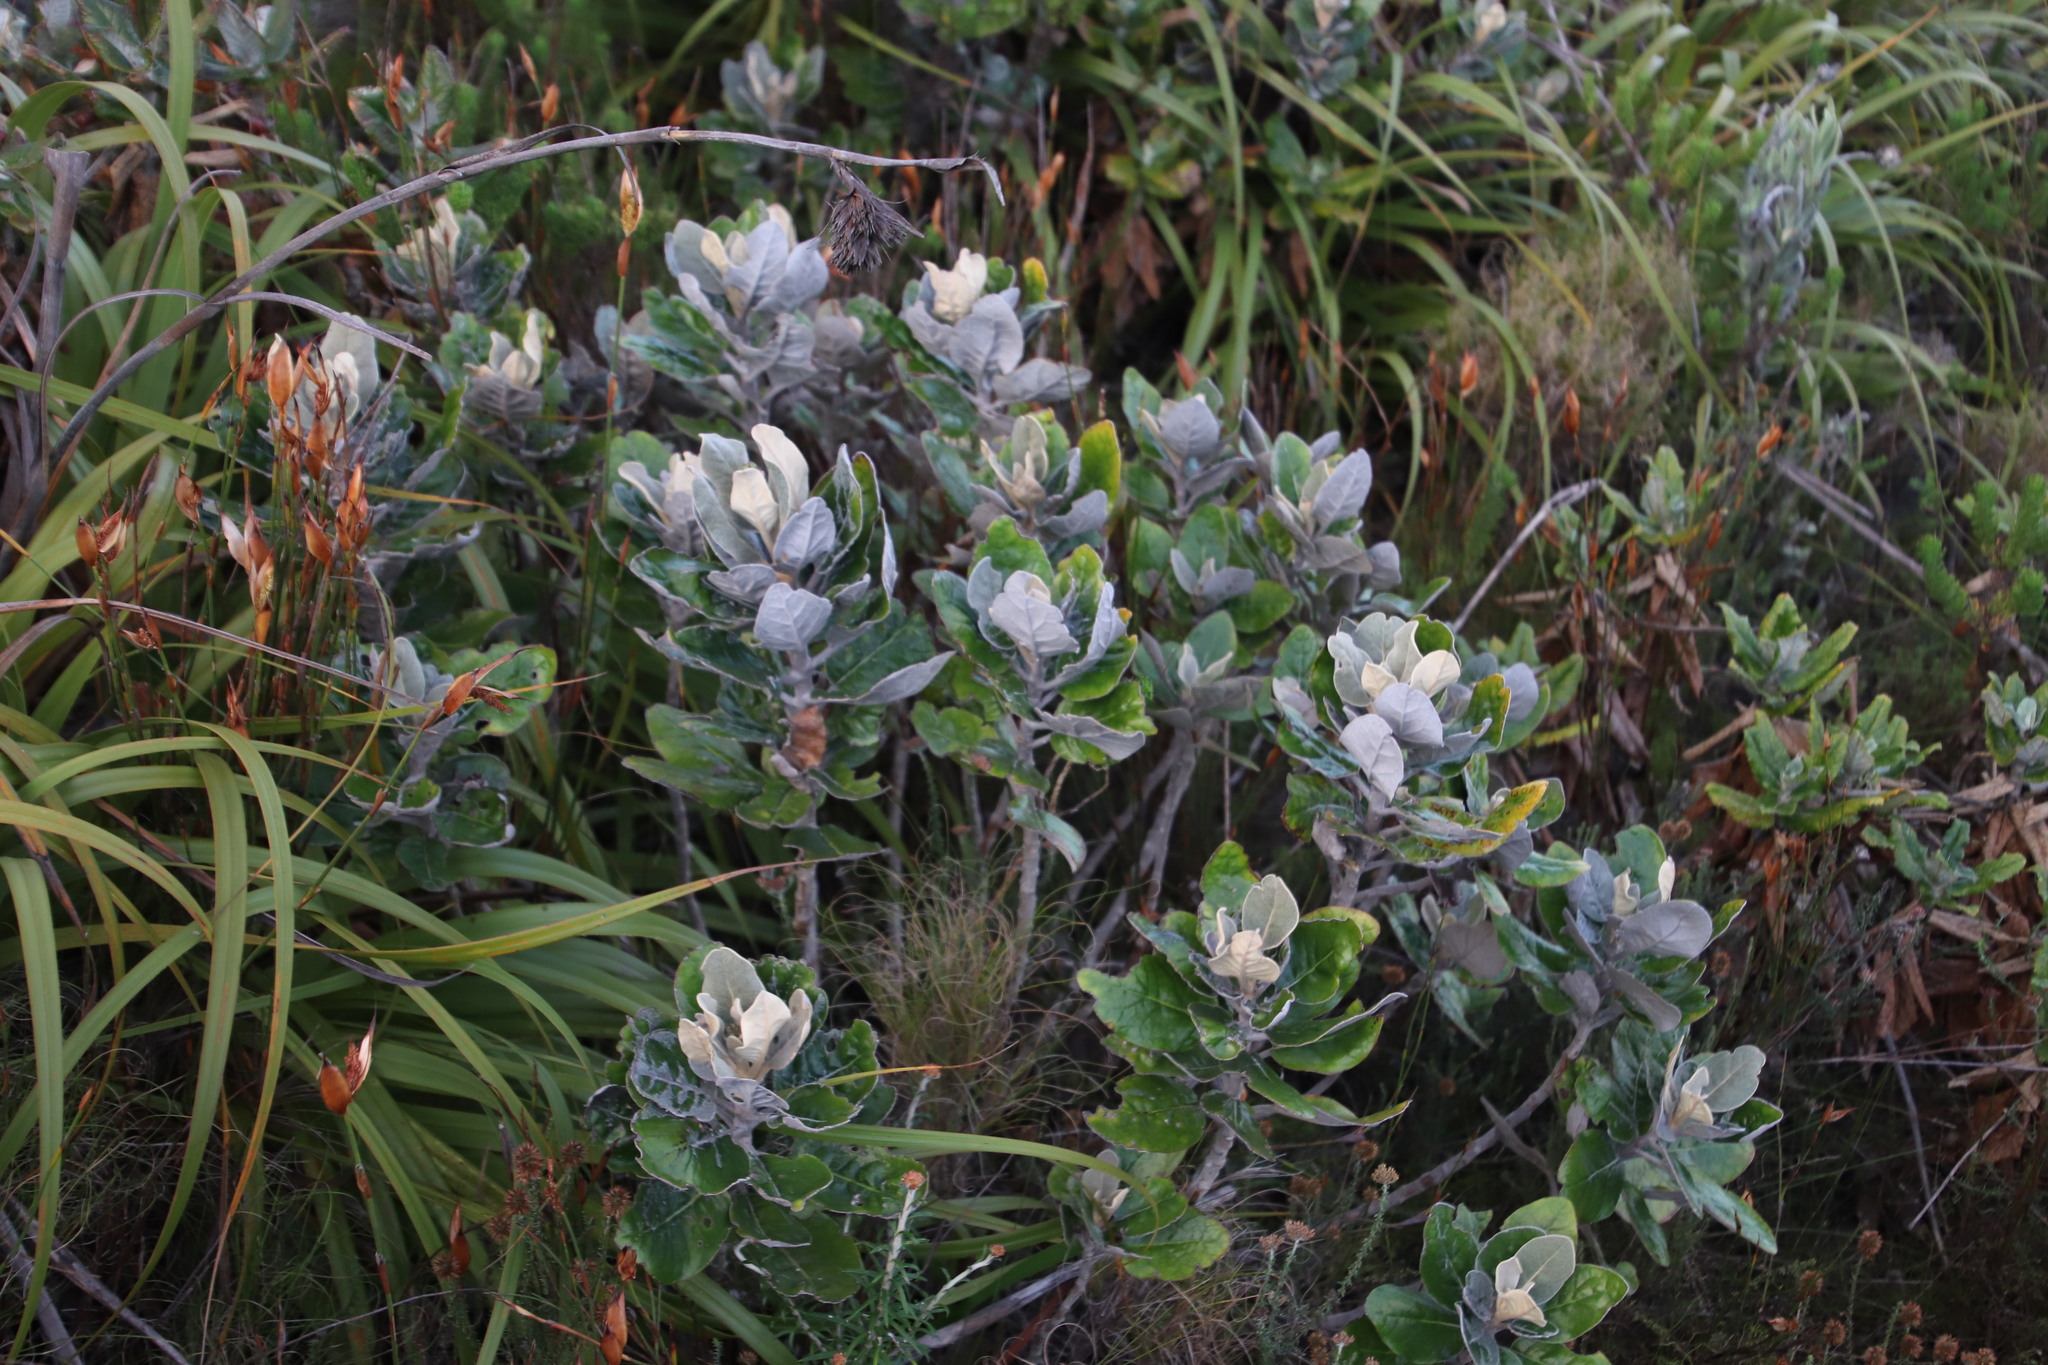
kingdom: Plantae
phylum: Tracheophyta
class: Magnoliopsida
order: Apiales
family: Apiaceae
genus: Hermas
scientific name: Hermas villosa
